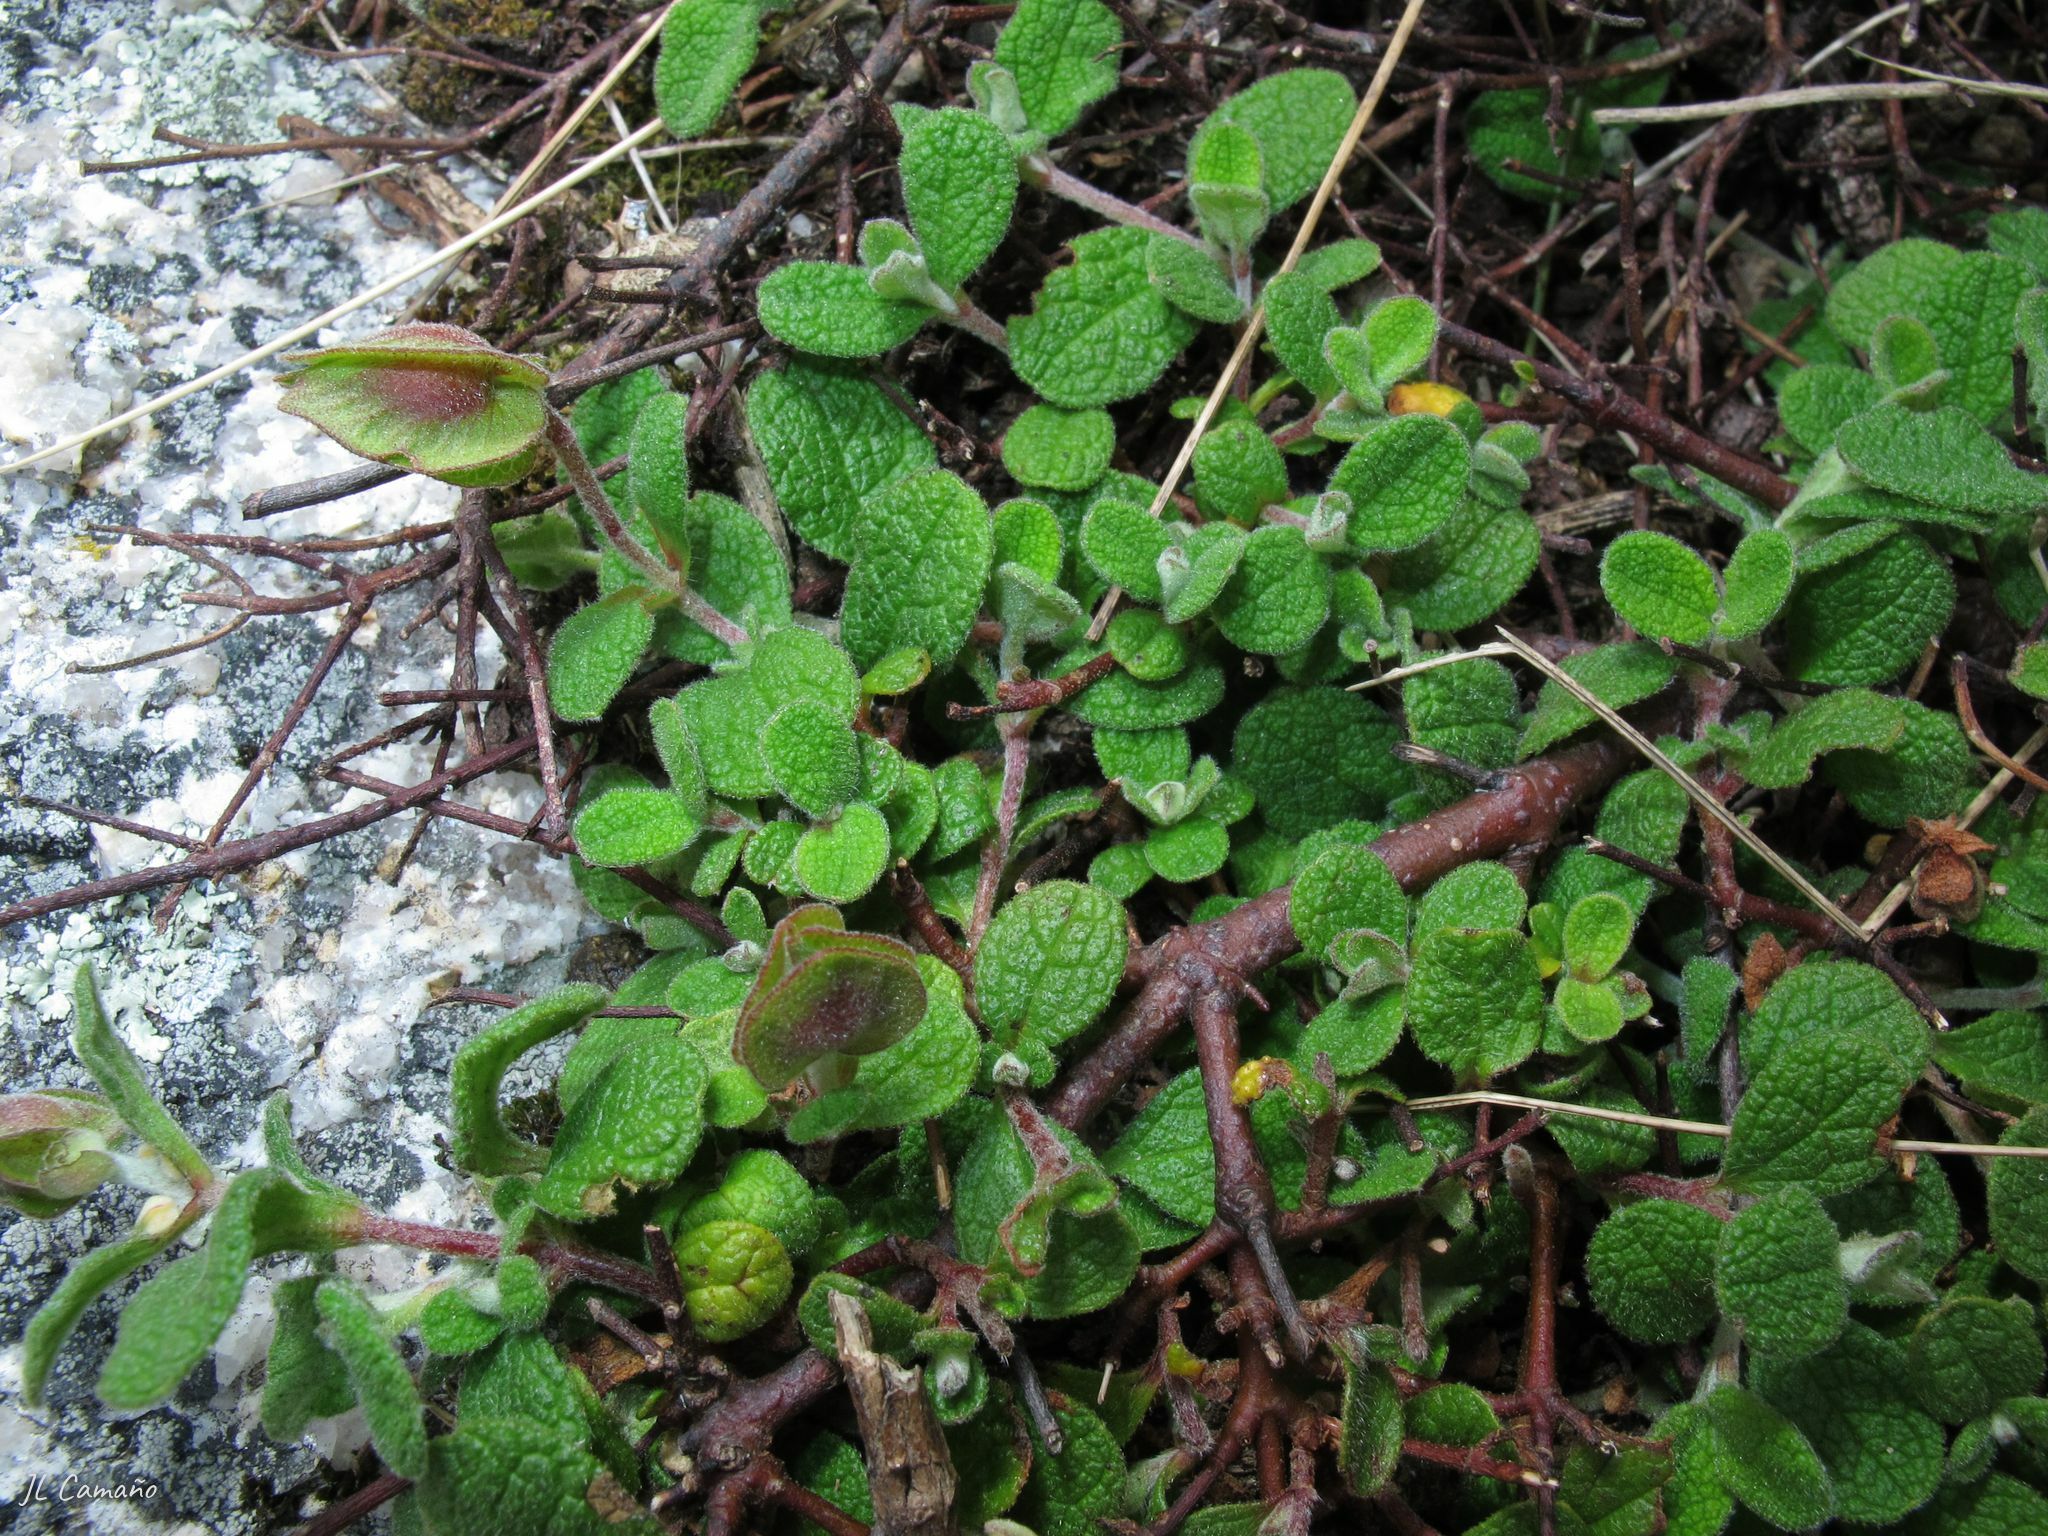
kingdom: Plantae
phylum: Tracheophyta
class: Magnoliopsida
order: Malvales
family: Cistaceae
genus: Cistus
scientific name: Cistus salviifolius
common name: Salvia cistus
